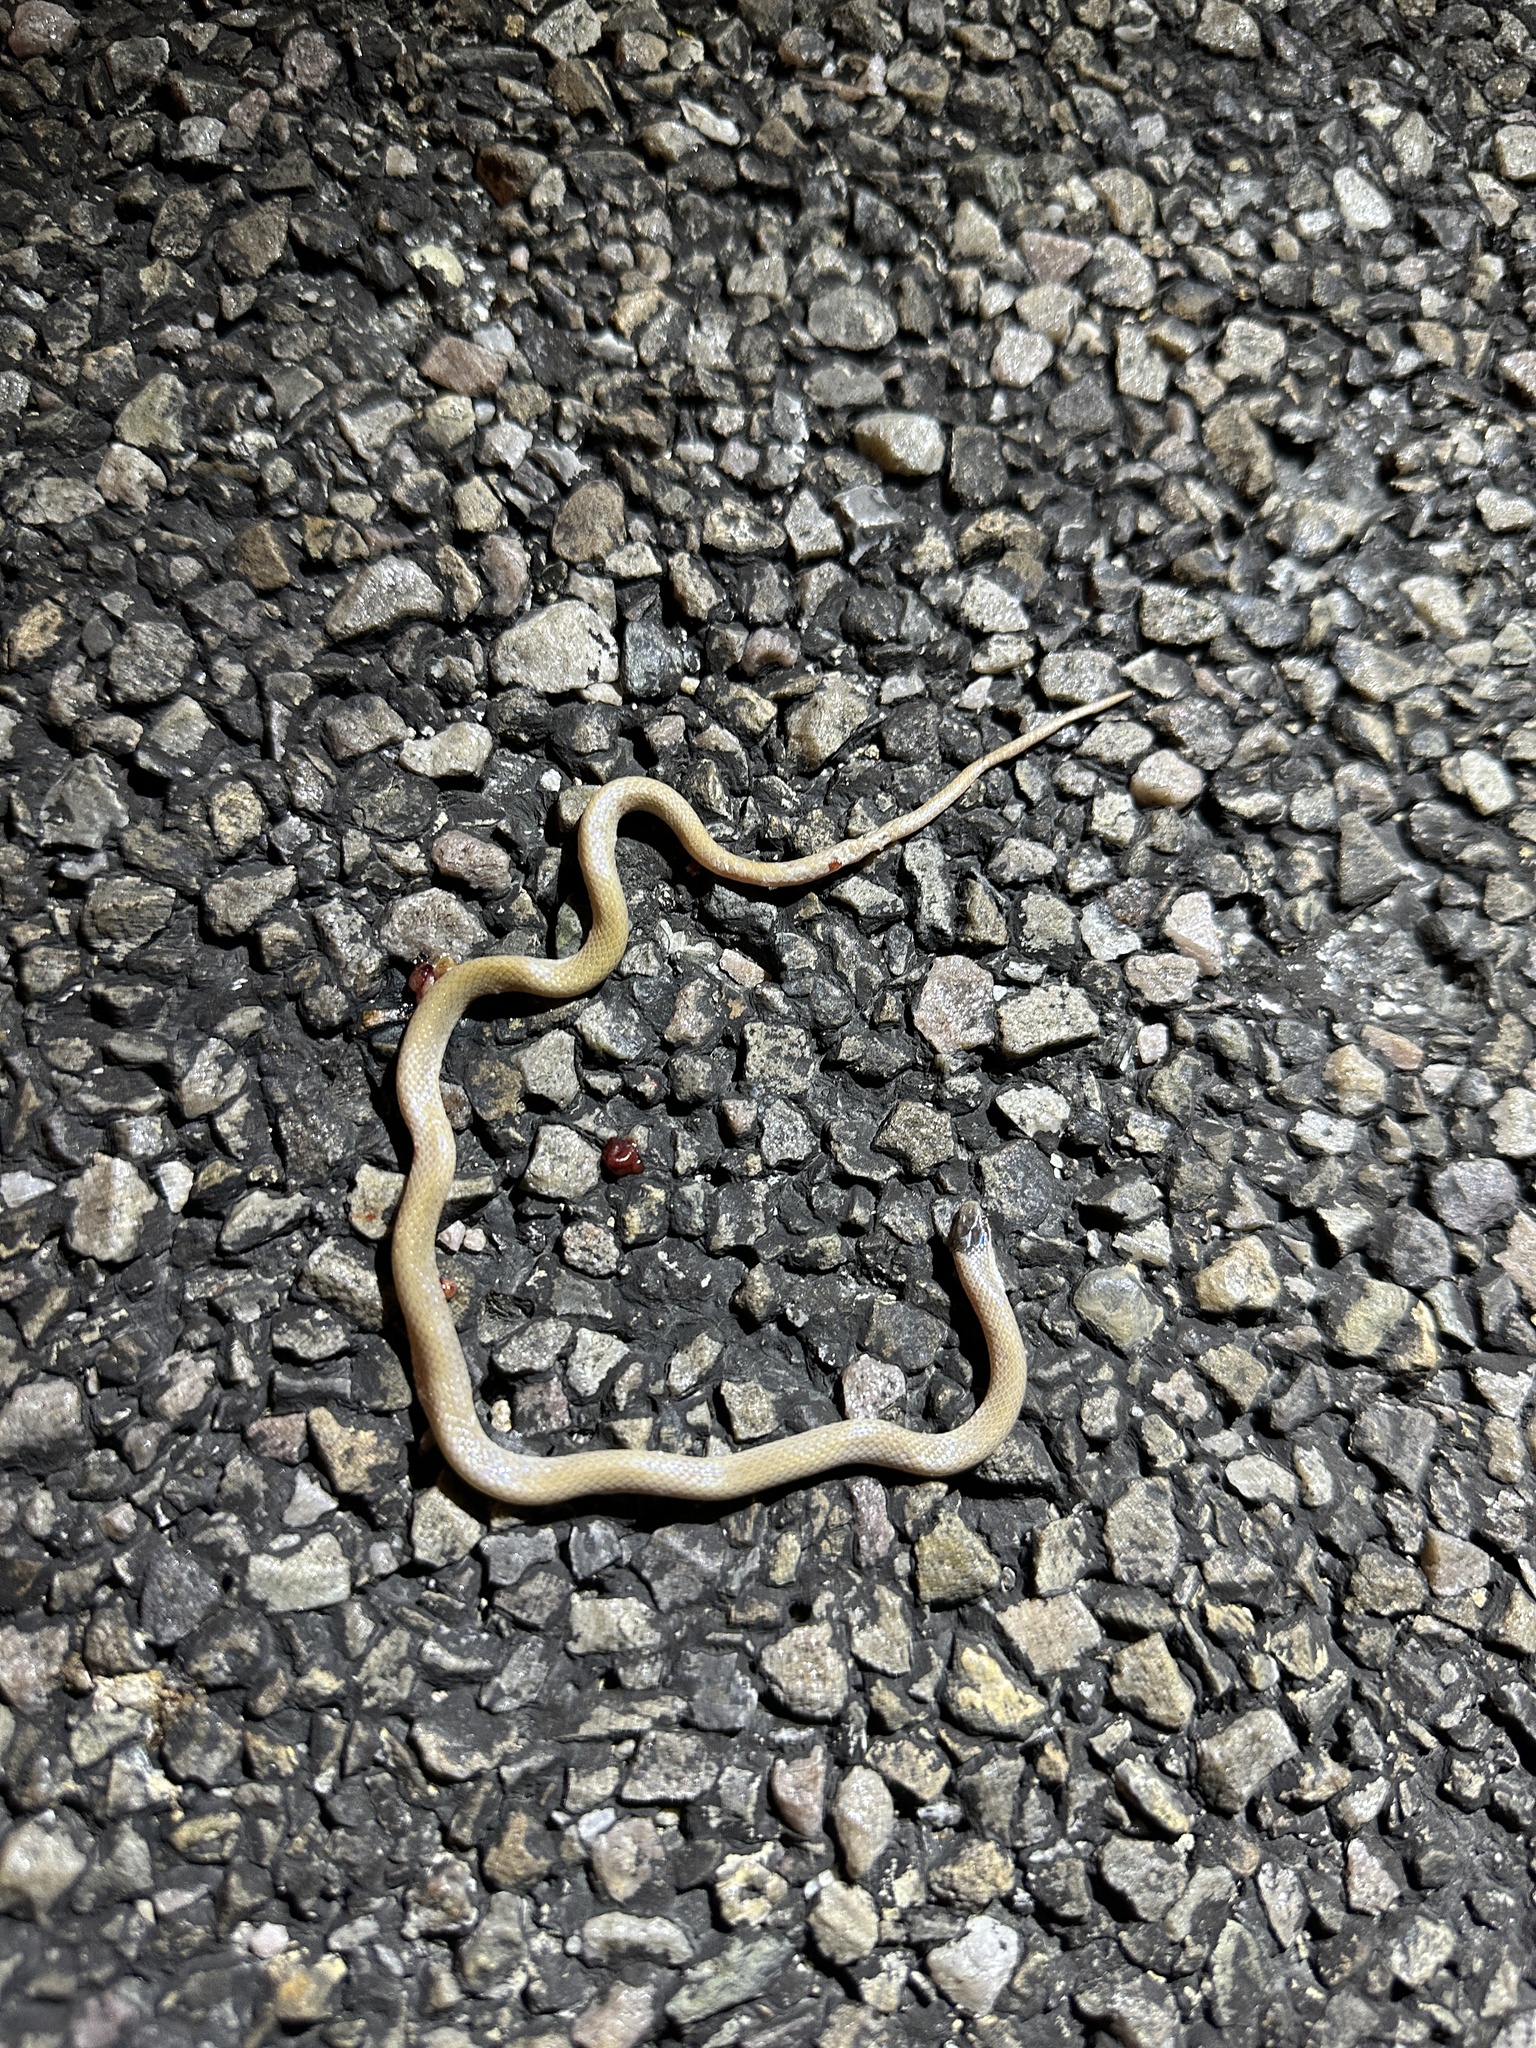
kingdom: Animalia
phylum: Chordata
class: Squamata
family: Colubridae
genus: Tantilla
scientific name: Tantilla hobartsmithi
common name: Southwestern blackhead snake
